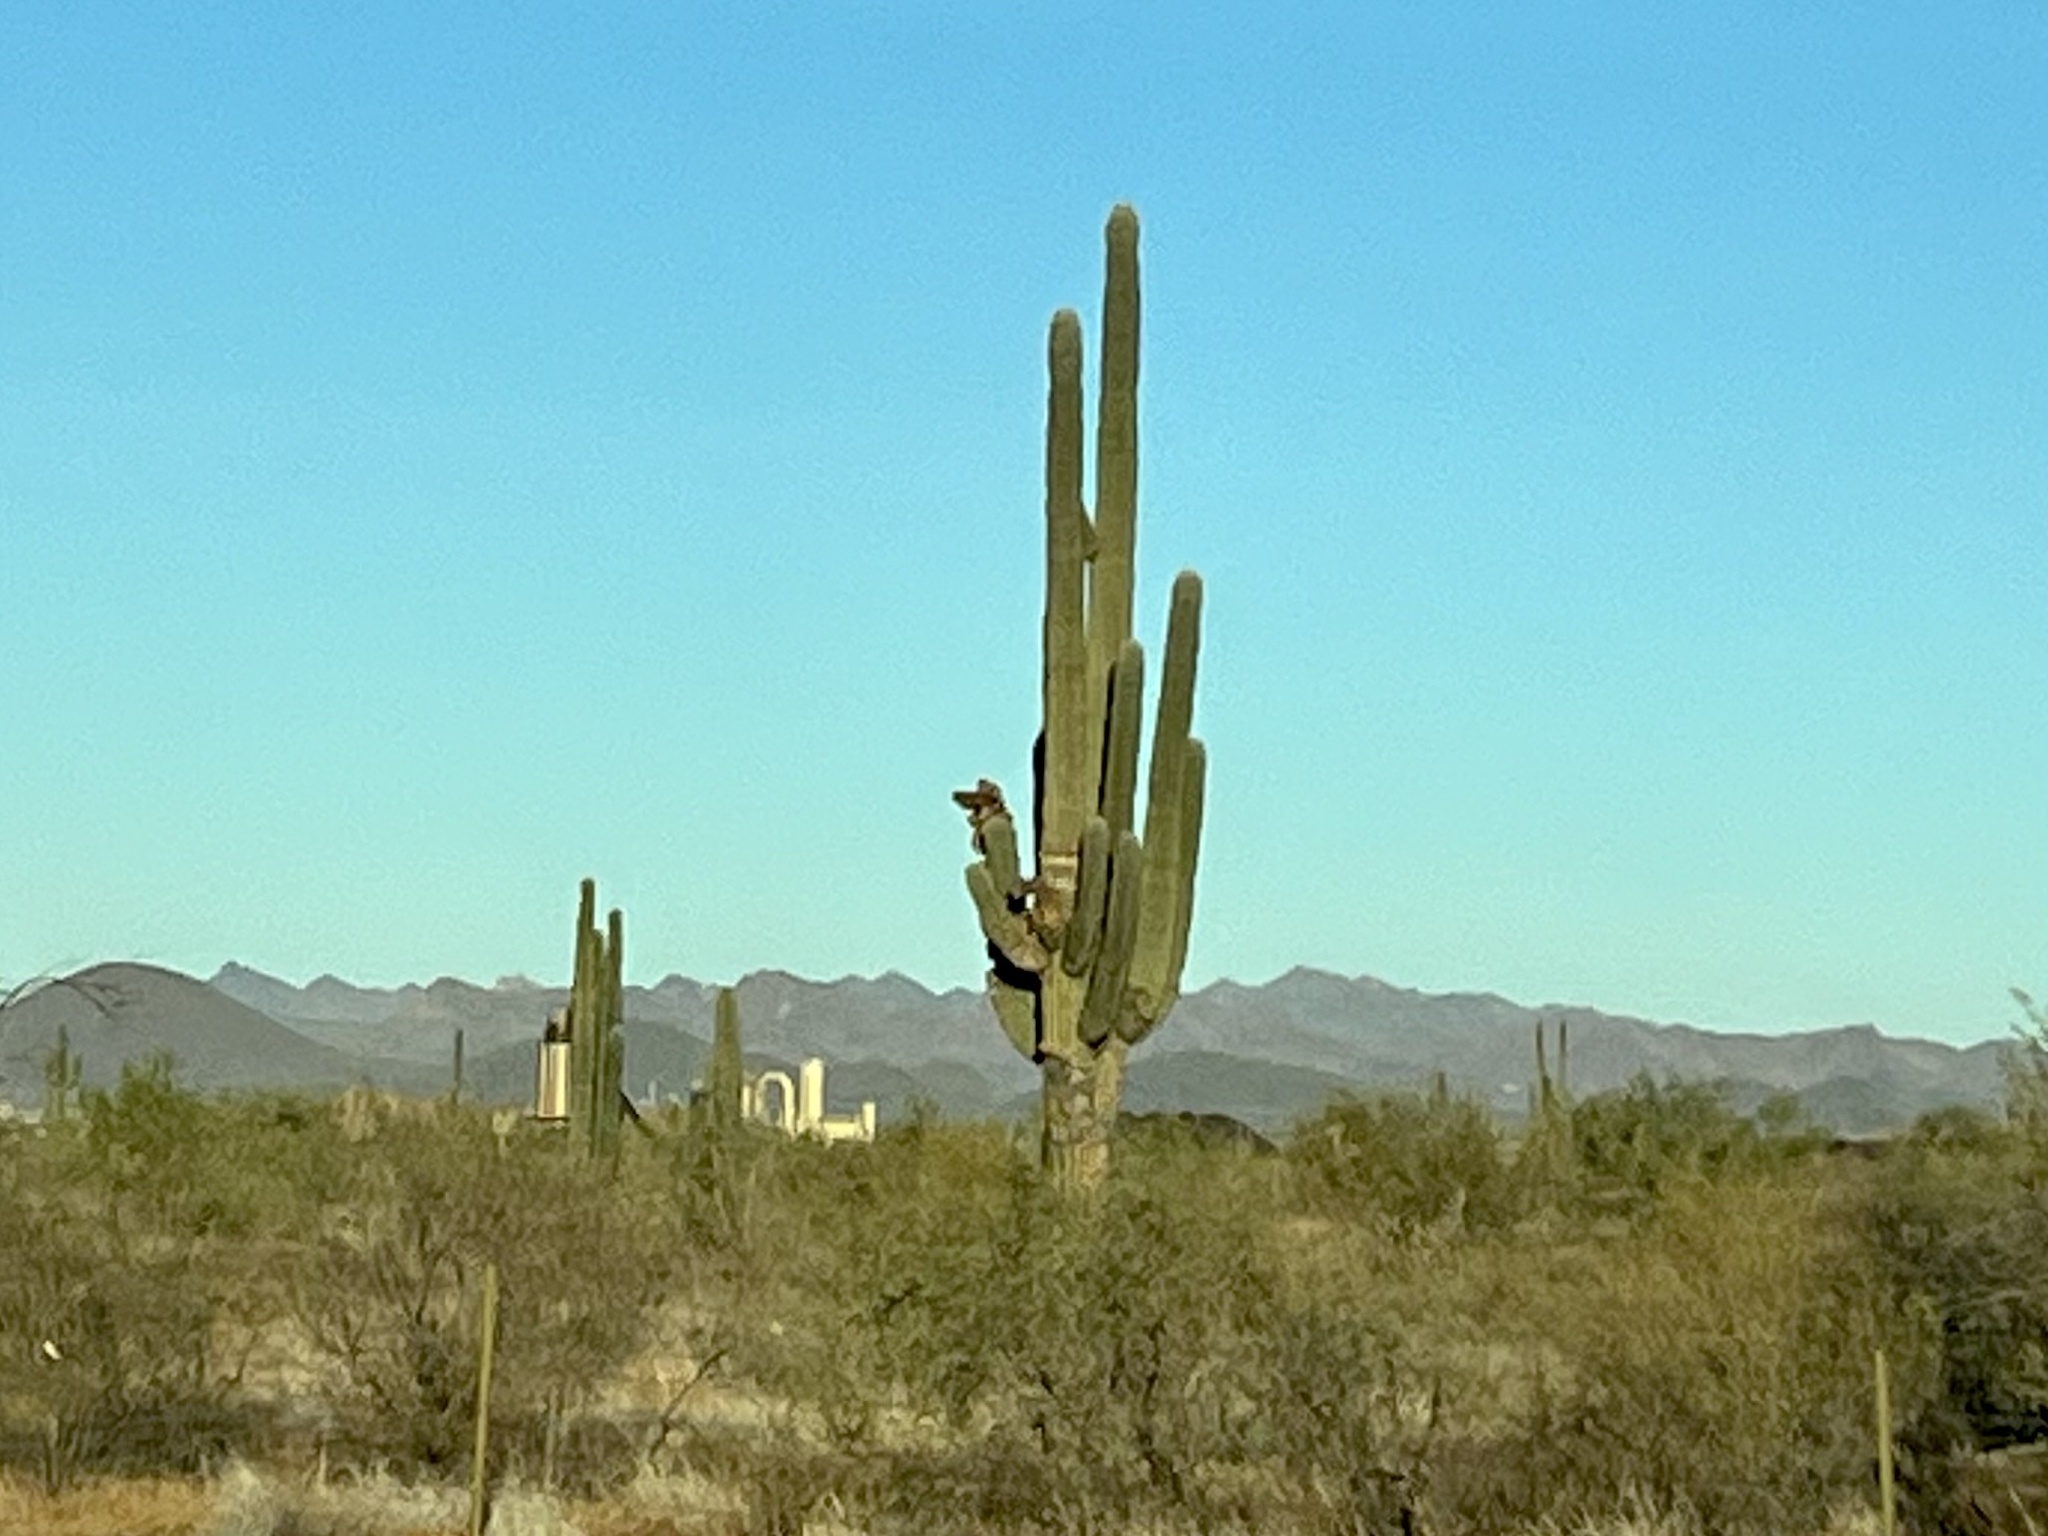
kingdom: Plantae
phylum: Tracheophyta
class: Magnoliopsida
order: Caryophyllales
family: Cactaceae
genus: Carnegiea
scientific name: Carnegiea gigantea
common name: Saguaro
